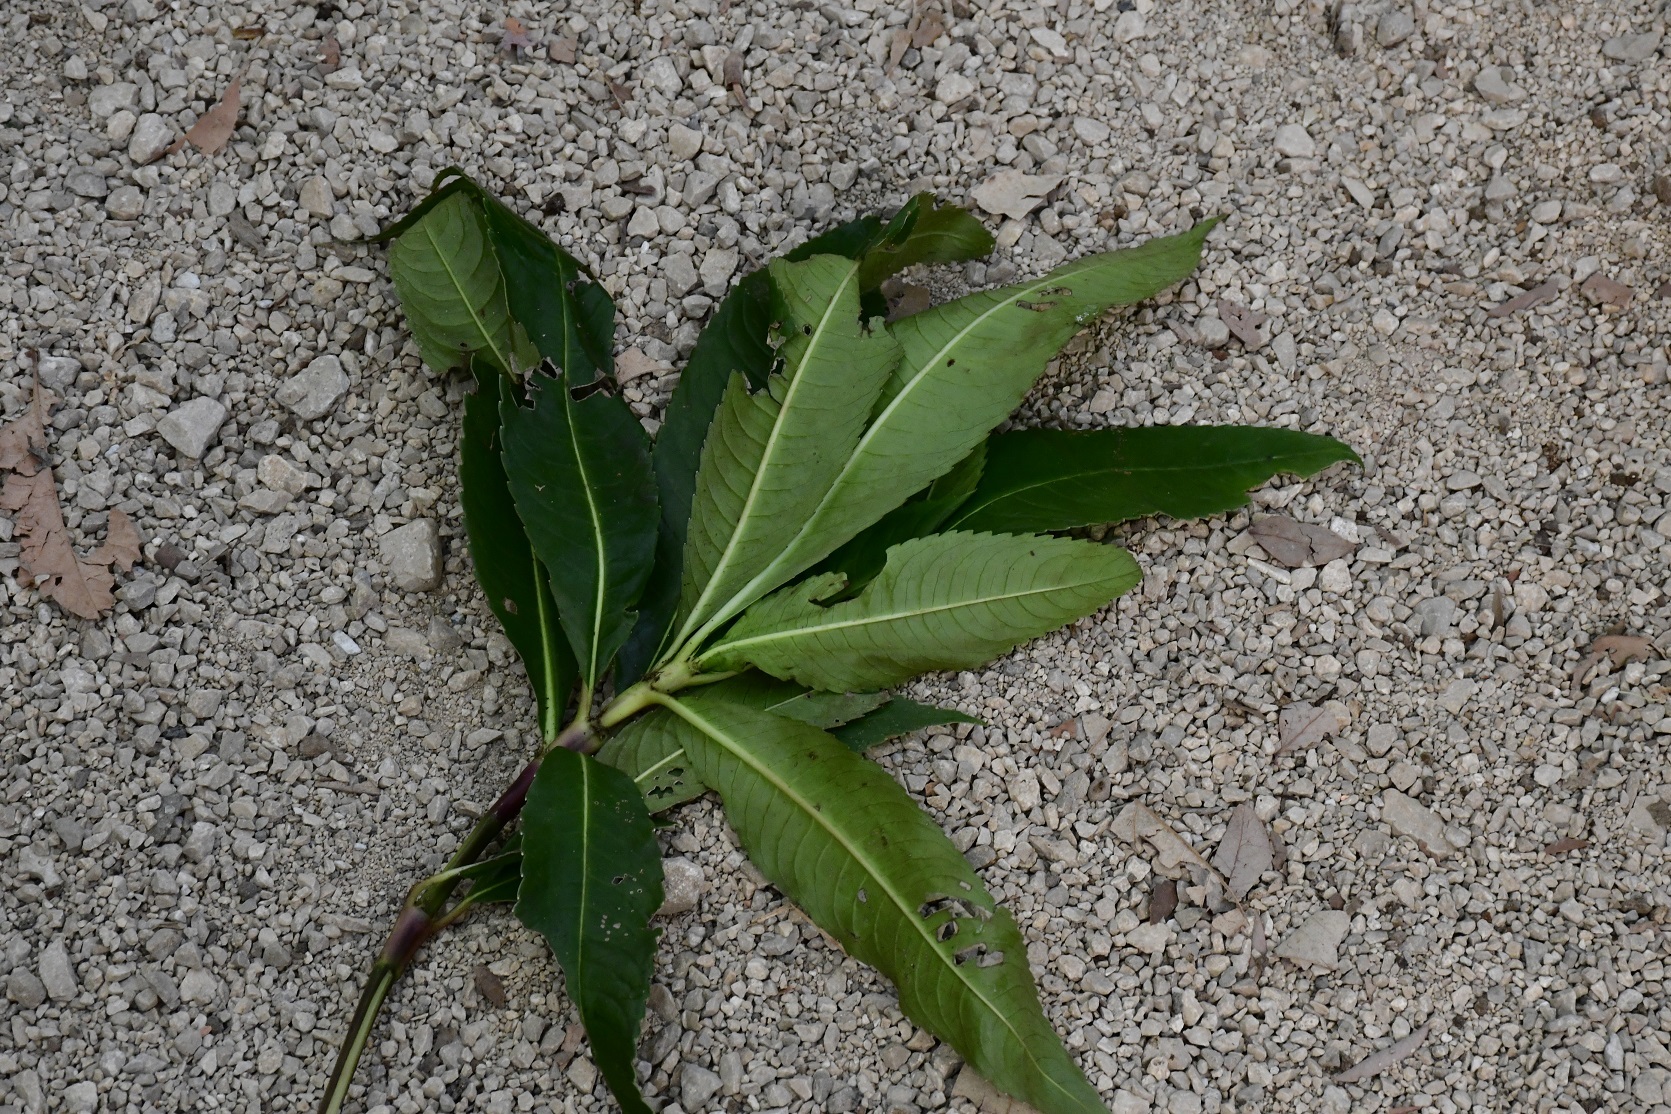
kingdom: Plantae
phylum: Tracheophyta
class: Magnoliopsida
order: Chloranthales
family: Chloranthaceae
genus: Hedyosmum
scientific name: Hedyosmum mexicanum
